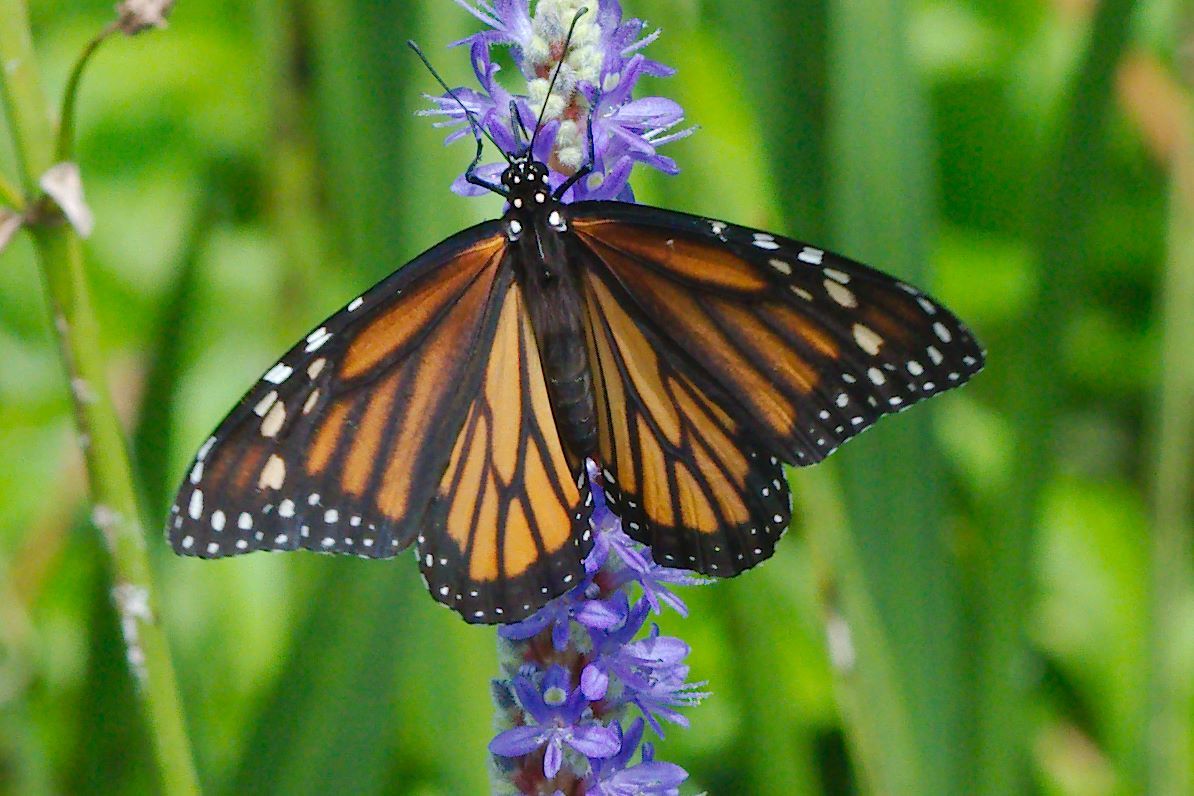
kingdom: Animalia
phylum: Arthropoda
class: Insecta
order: Lepidoptera
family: Nymphalidae
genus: Danaus
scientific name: Danaus plexippus
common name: Monarch
